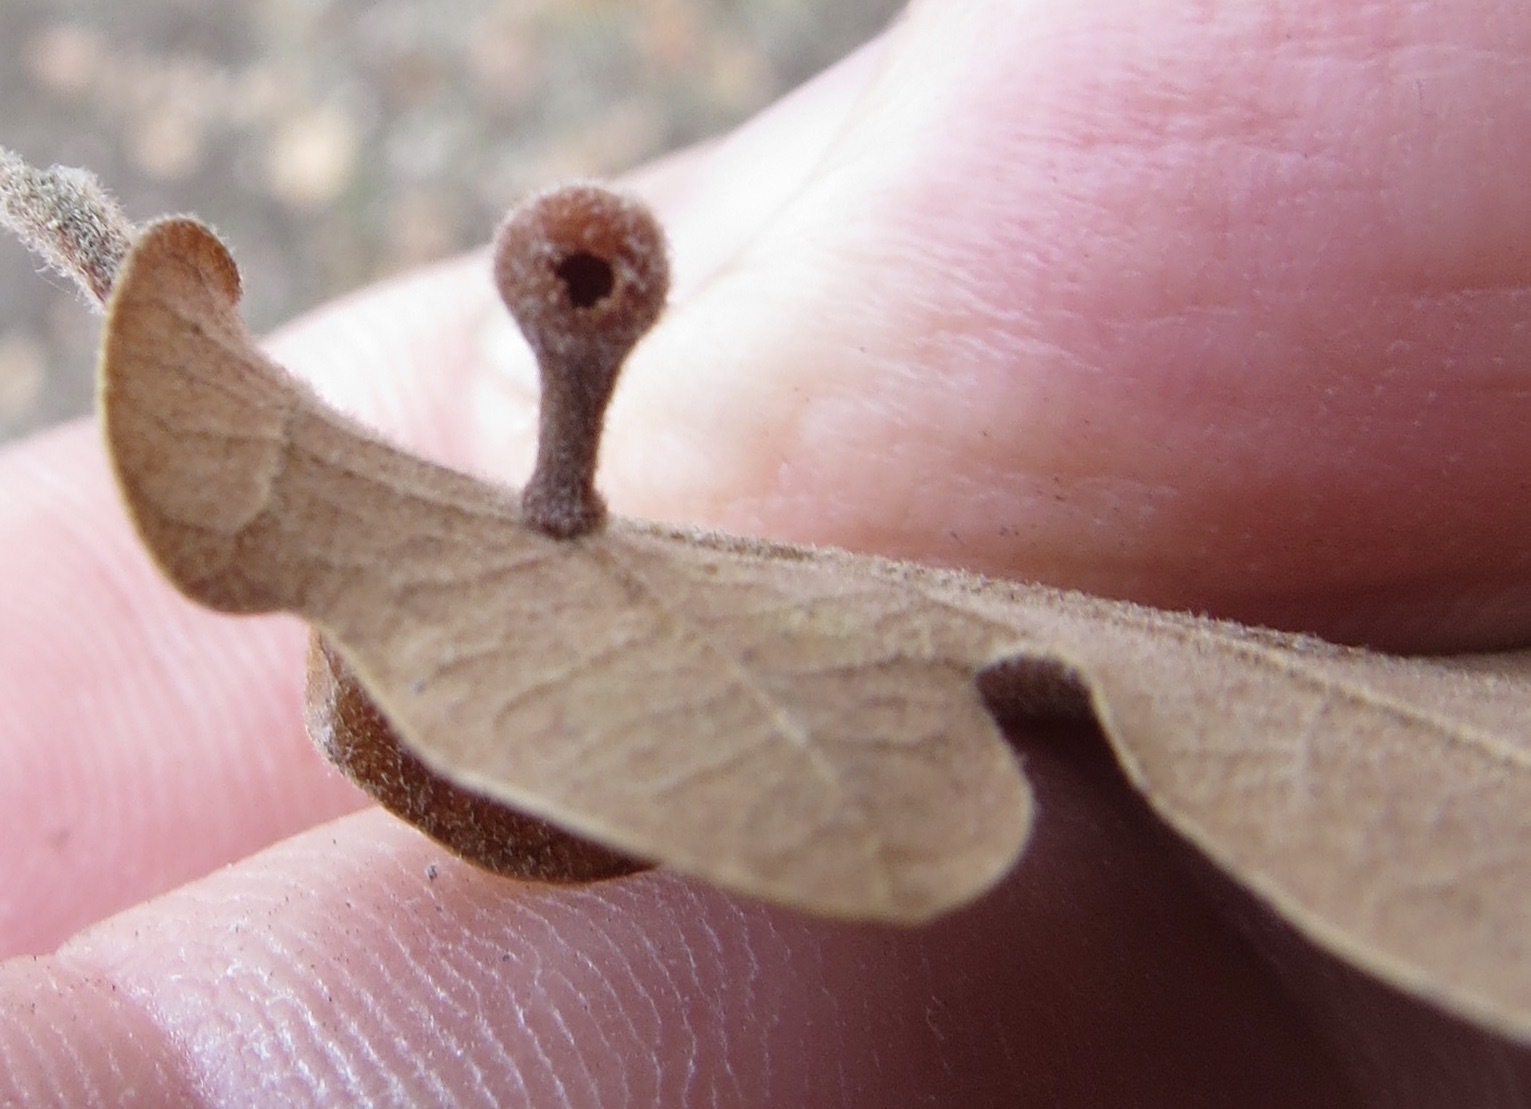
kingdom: Animalia
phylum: Arthropoda
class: Insecta
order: Hymenoptera
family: Cynipidae
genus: Trigonaspis
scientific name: Trigonaspis
